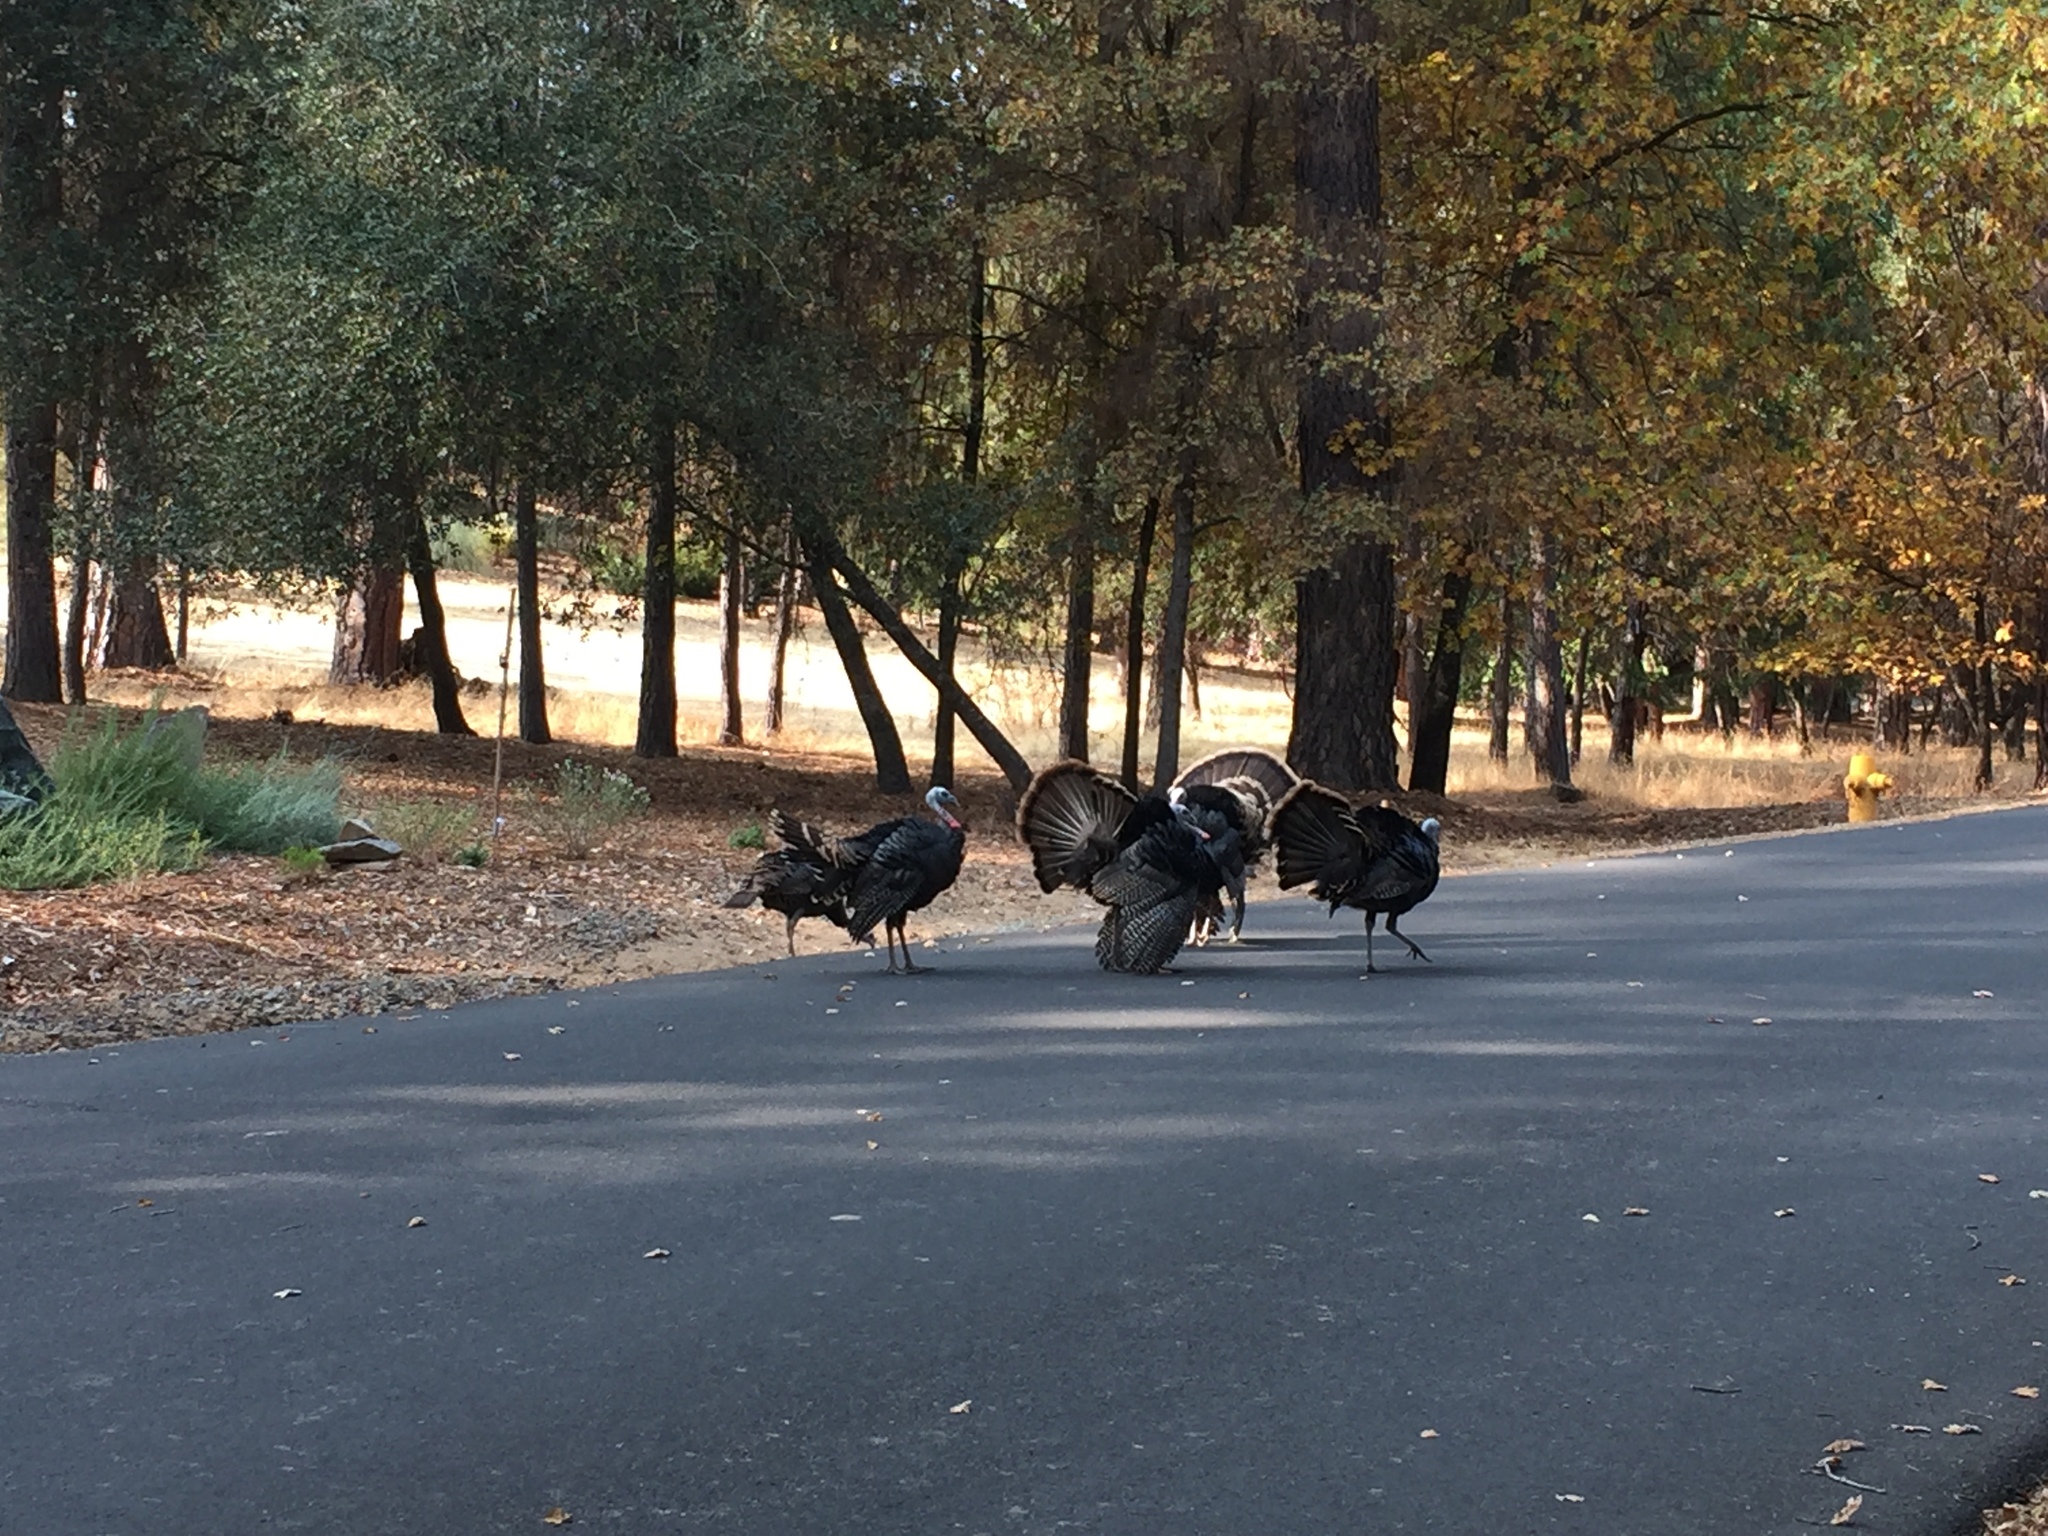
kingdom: Animalia
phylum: Chordata
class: Aves
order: Galliformes
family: Phasianidae
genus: Meleagris
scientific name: Meleagris gallopavo
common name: Wild turkey
